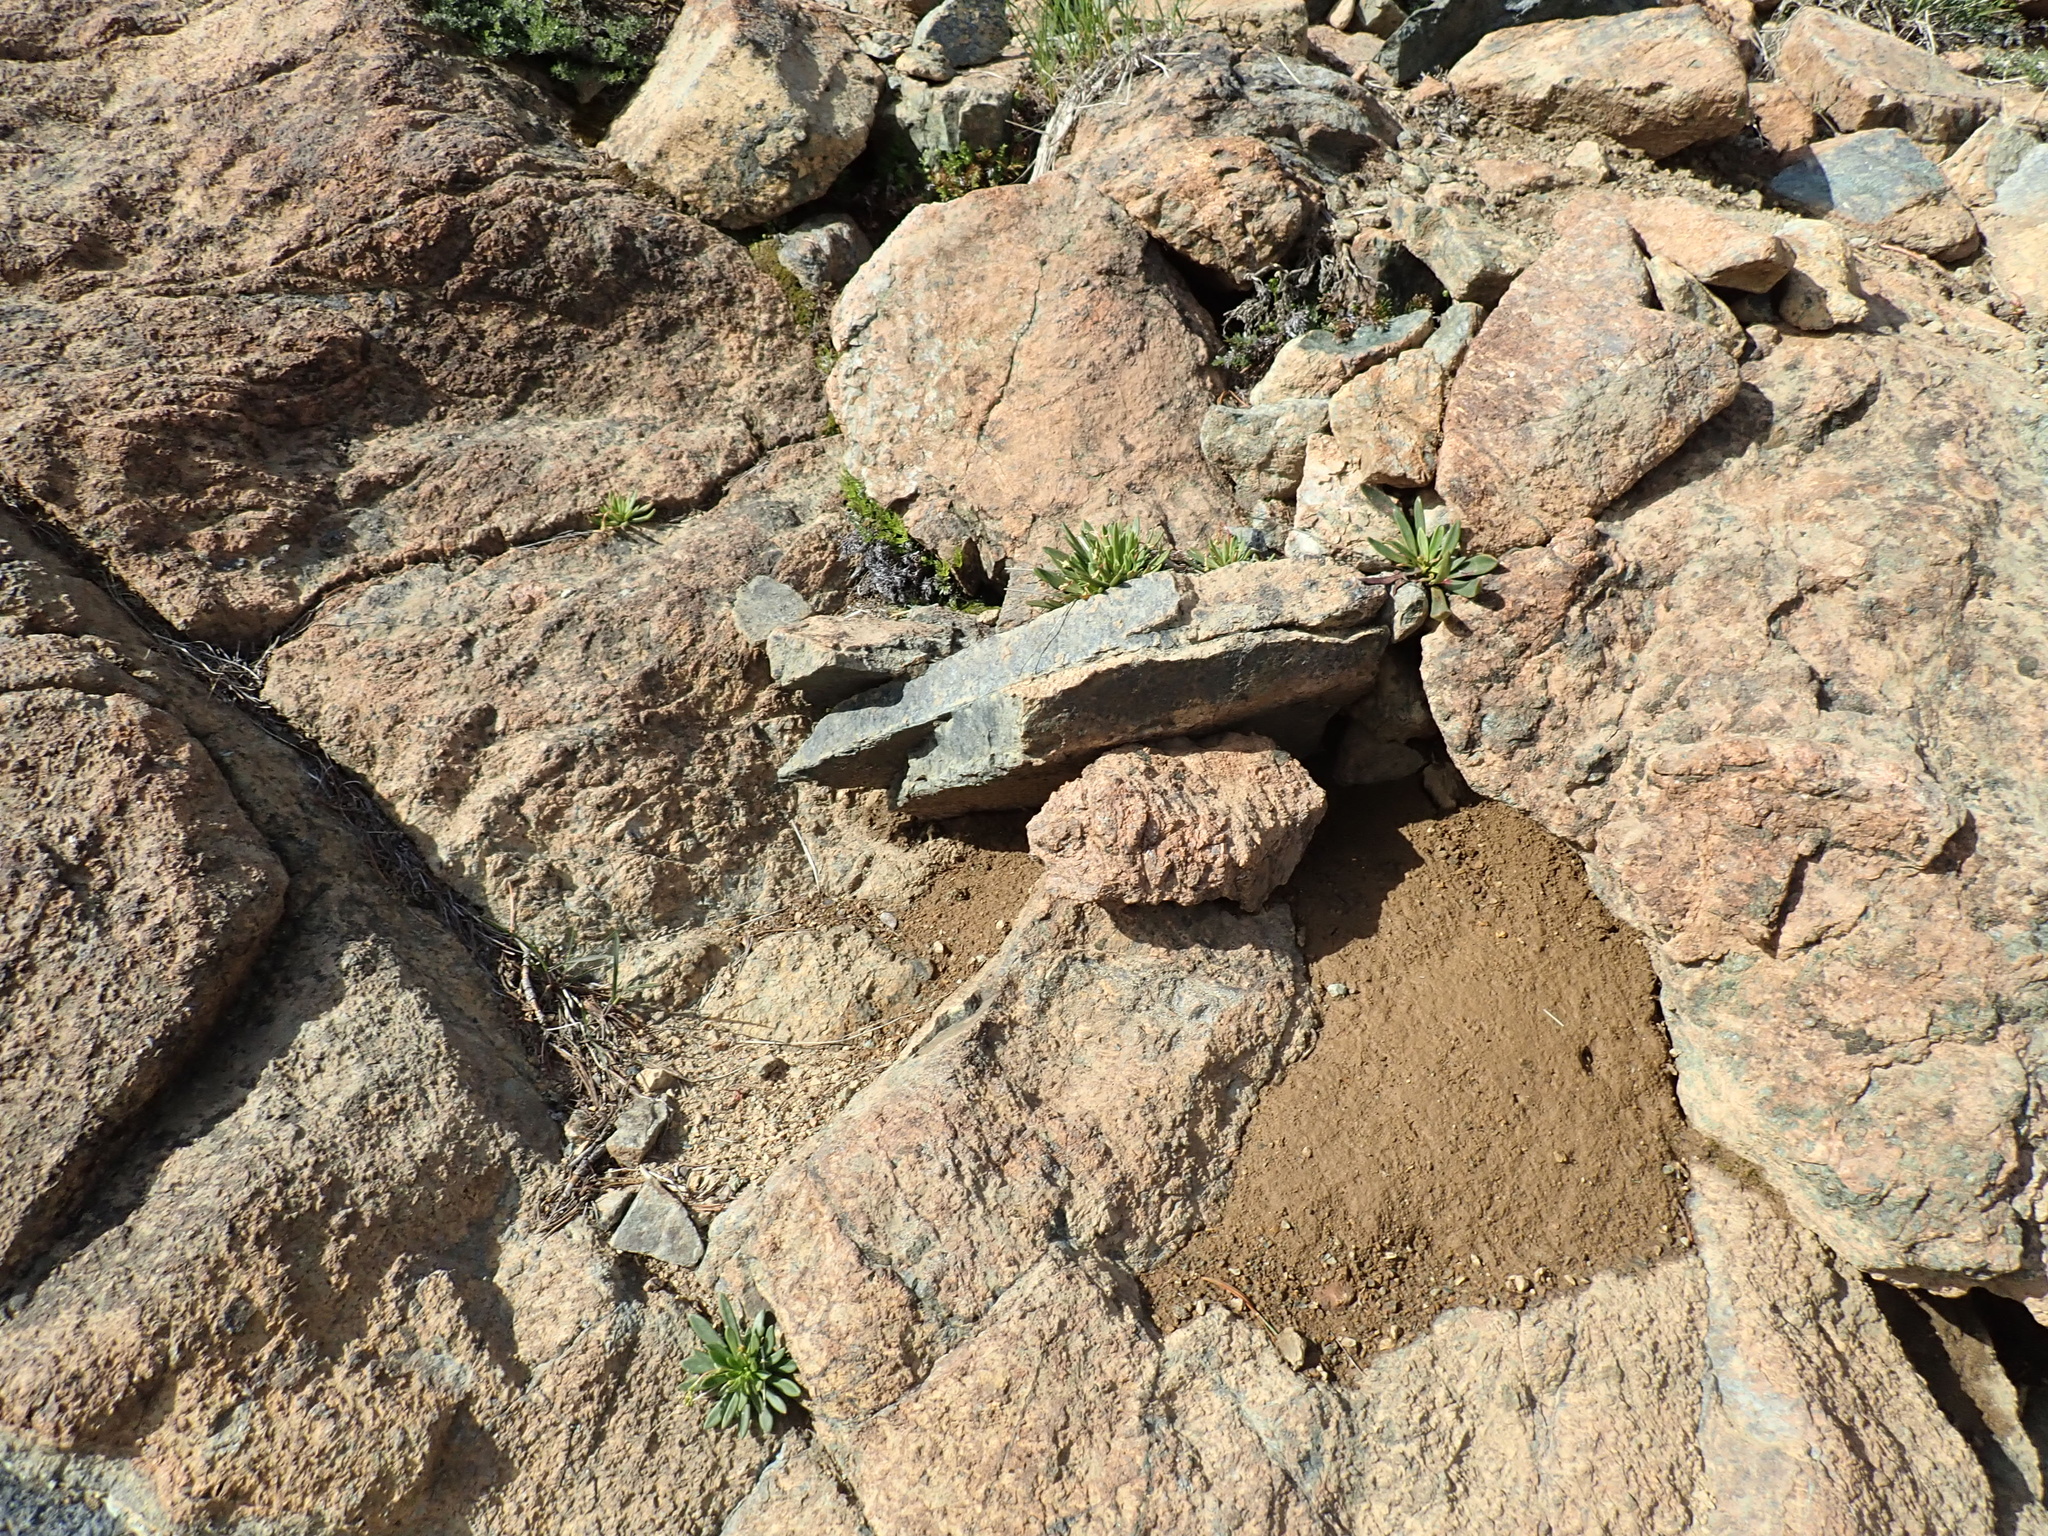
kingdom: Plantae
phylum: Tracheophyta
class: Magnoliopsida
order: Caryophyllales
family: Montiaceae
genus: Lewisia
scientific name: Lewisia columbiana
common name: Columbia lewisia
